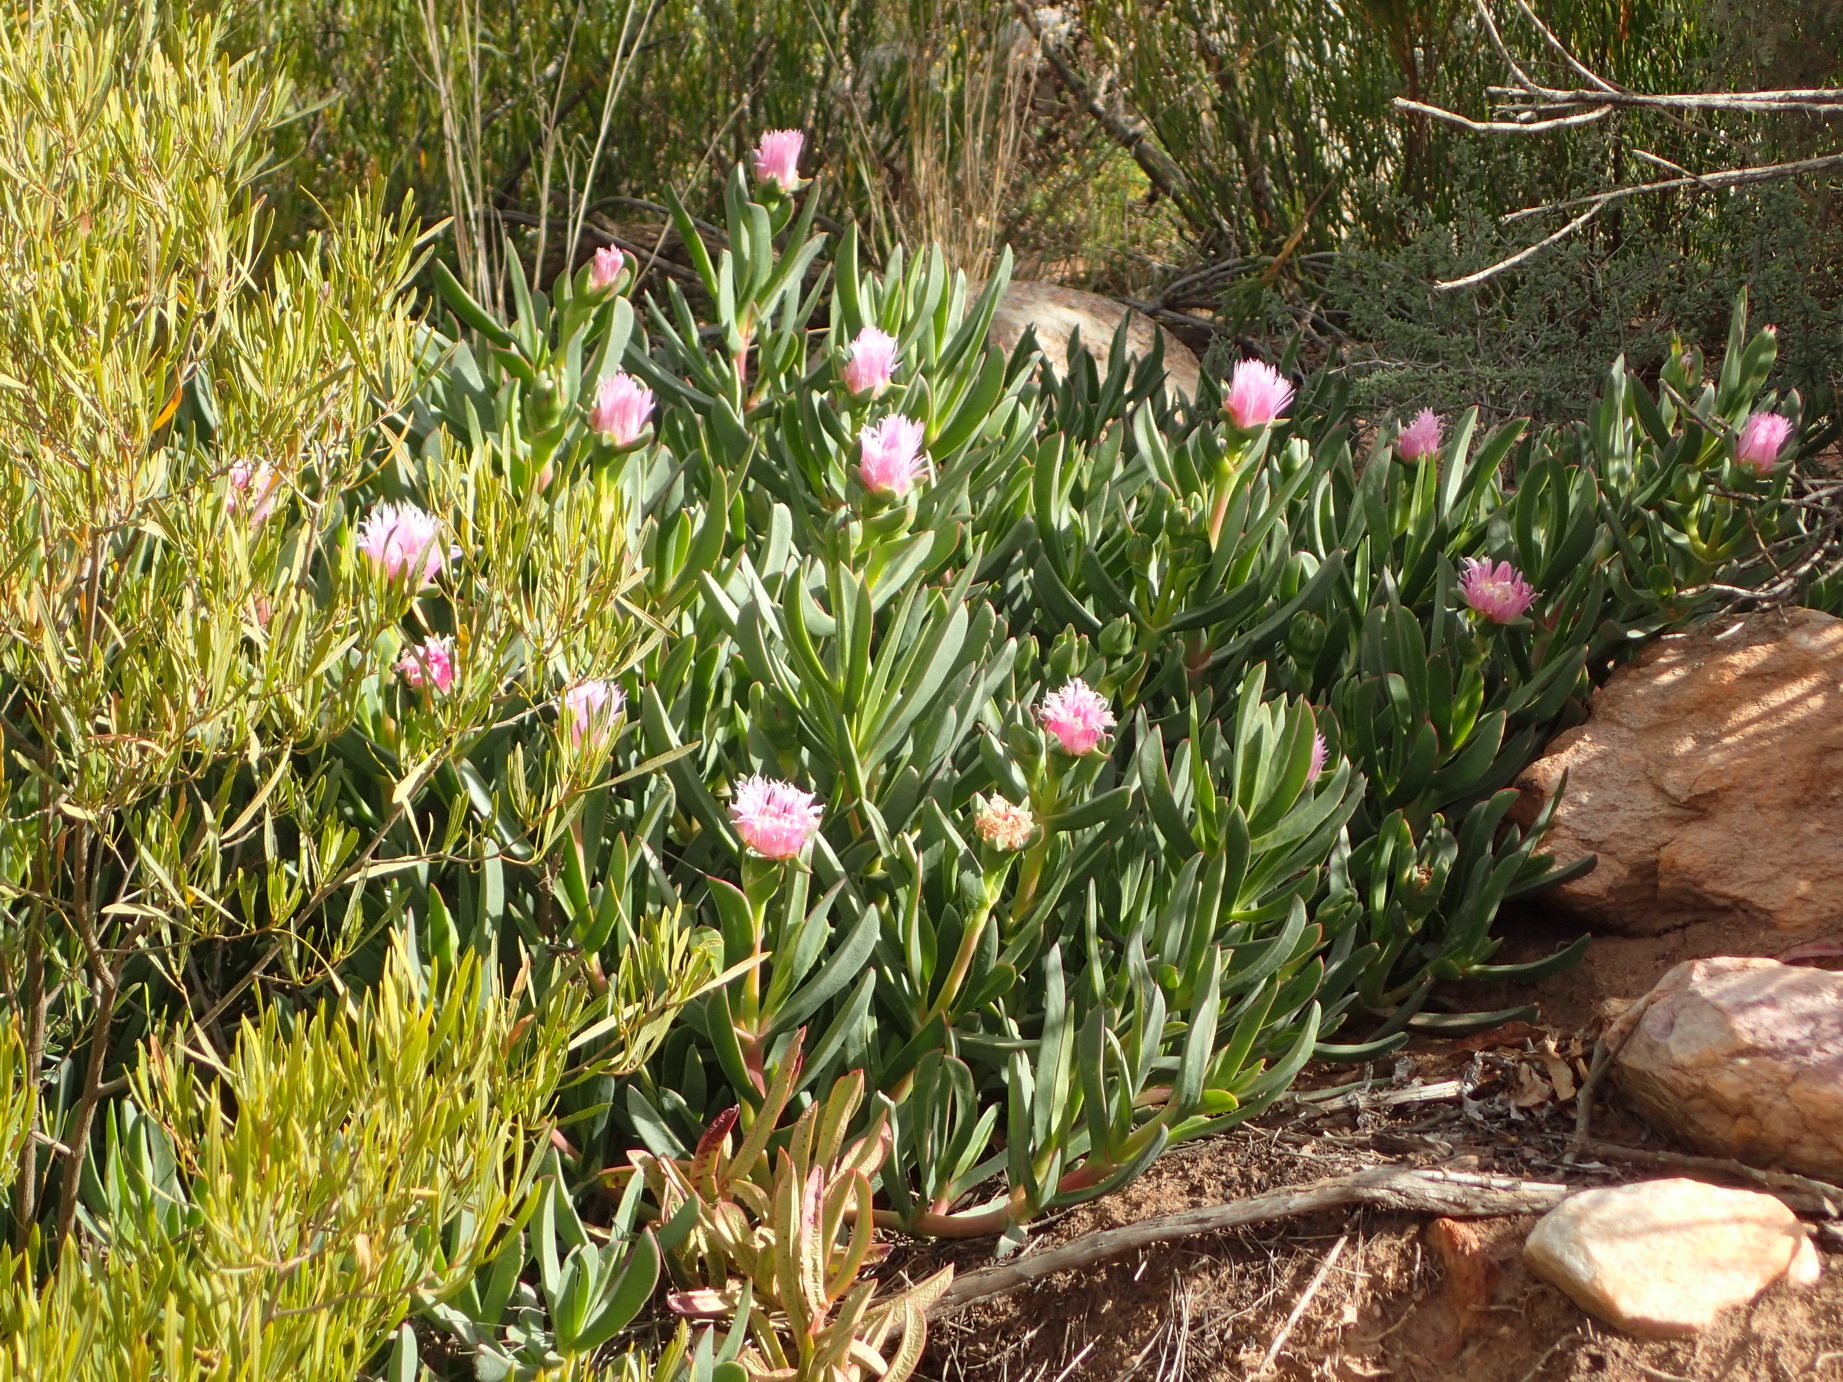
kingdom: Plantae
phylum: Tracheophyta
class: Magnoliopsida
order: Caryophyllales
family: Aizoaceae
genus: Carpobrotus
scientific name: Carpobrotus mellei
